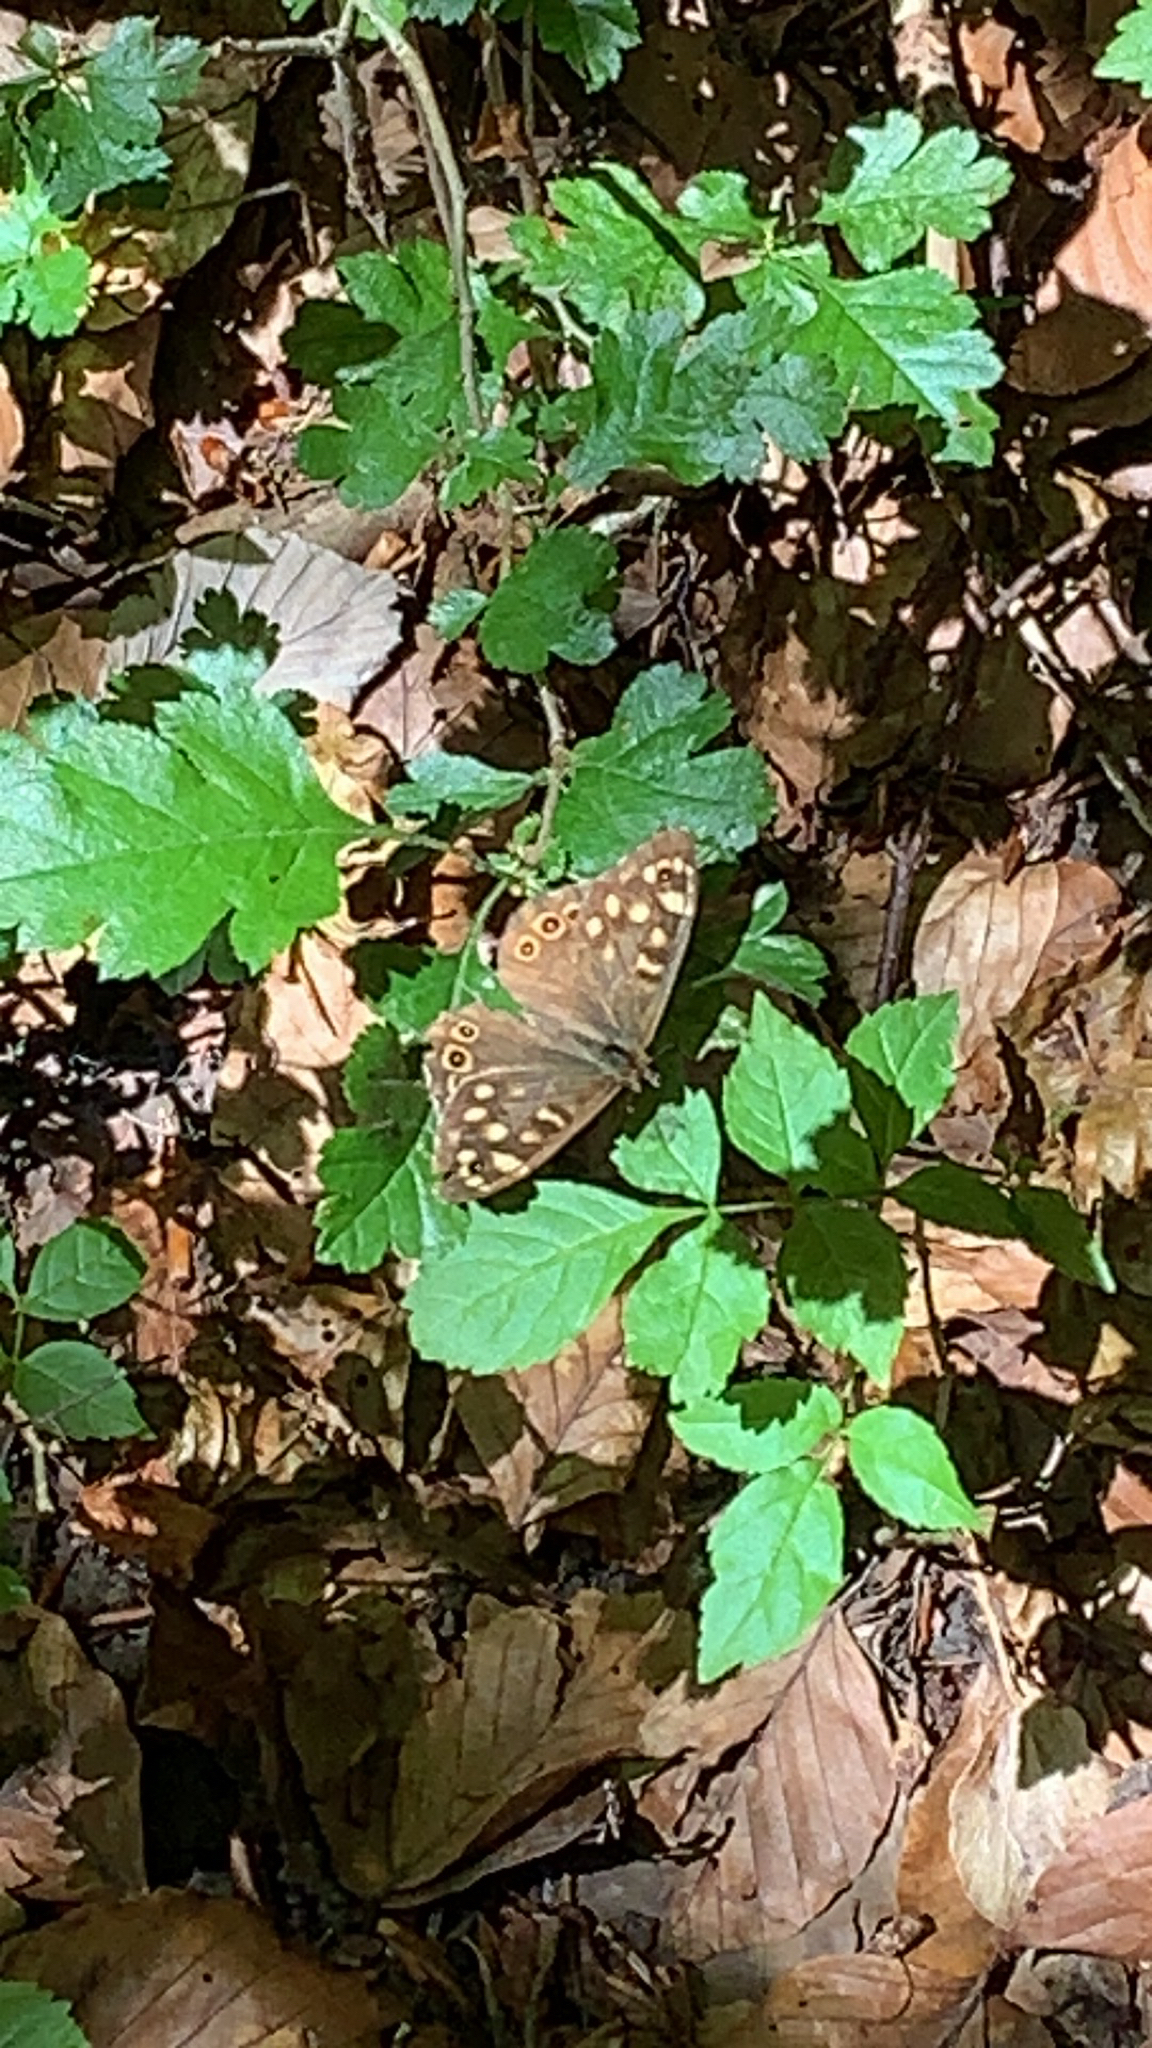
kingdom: Animalia
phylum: Arthropoda
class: Insecta
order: Lepidoptera
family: Nymphalidae
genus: Pararge
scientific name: Pararge aegeria
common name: Speckled wood
